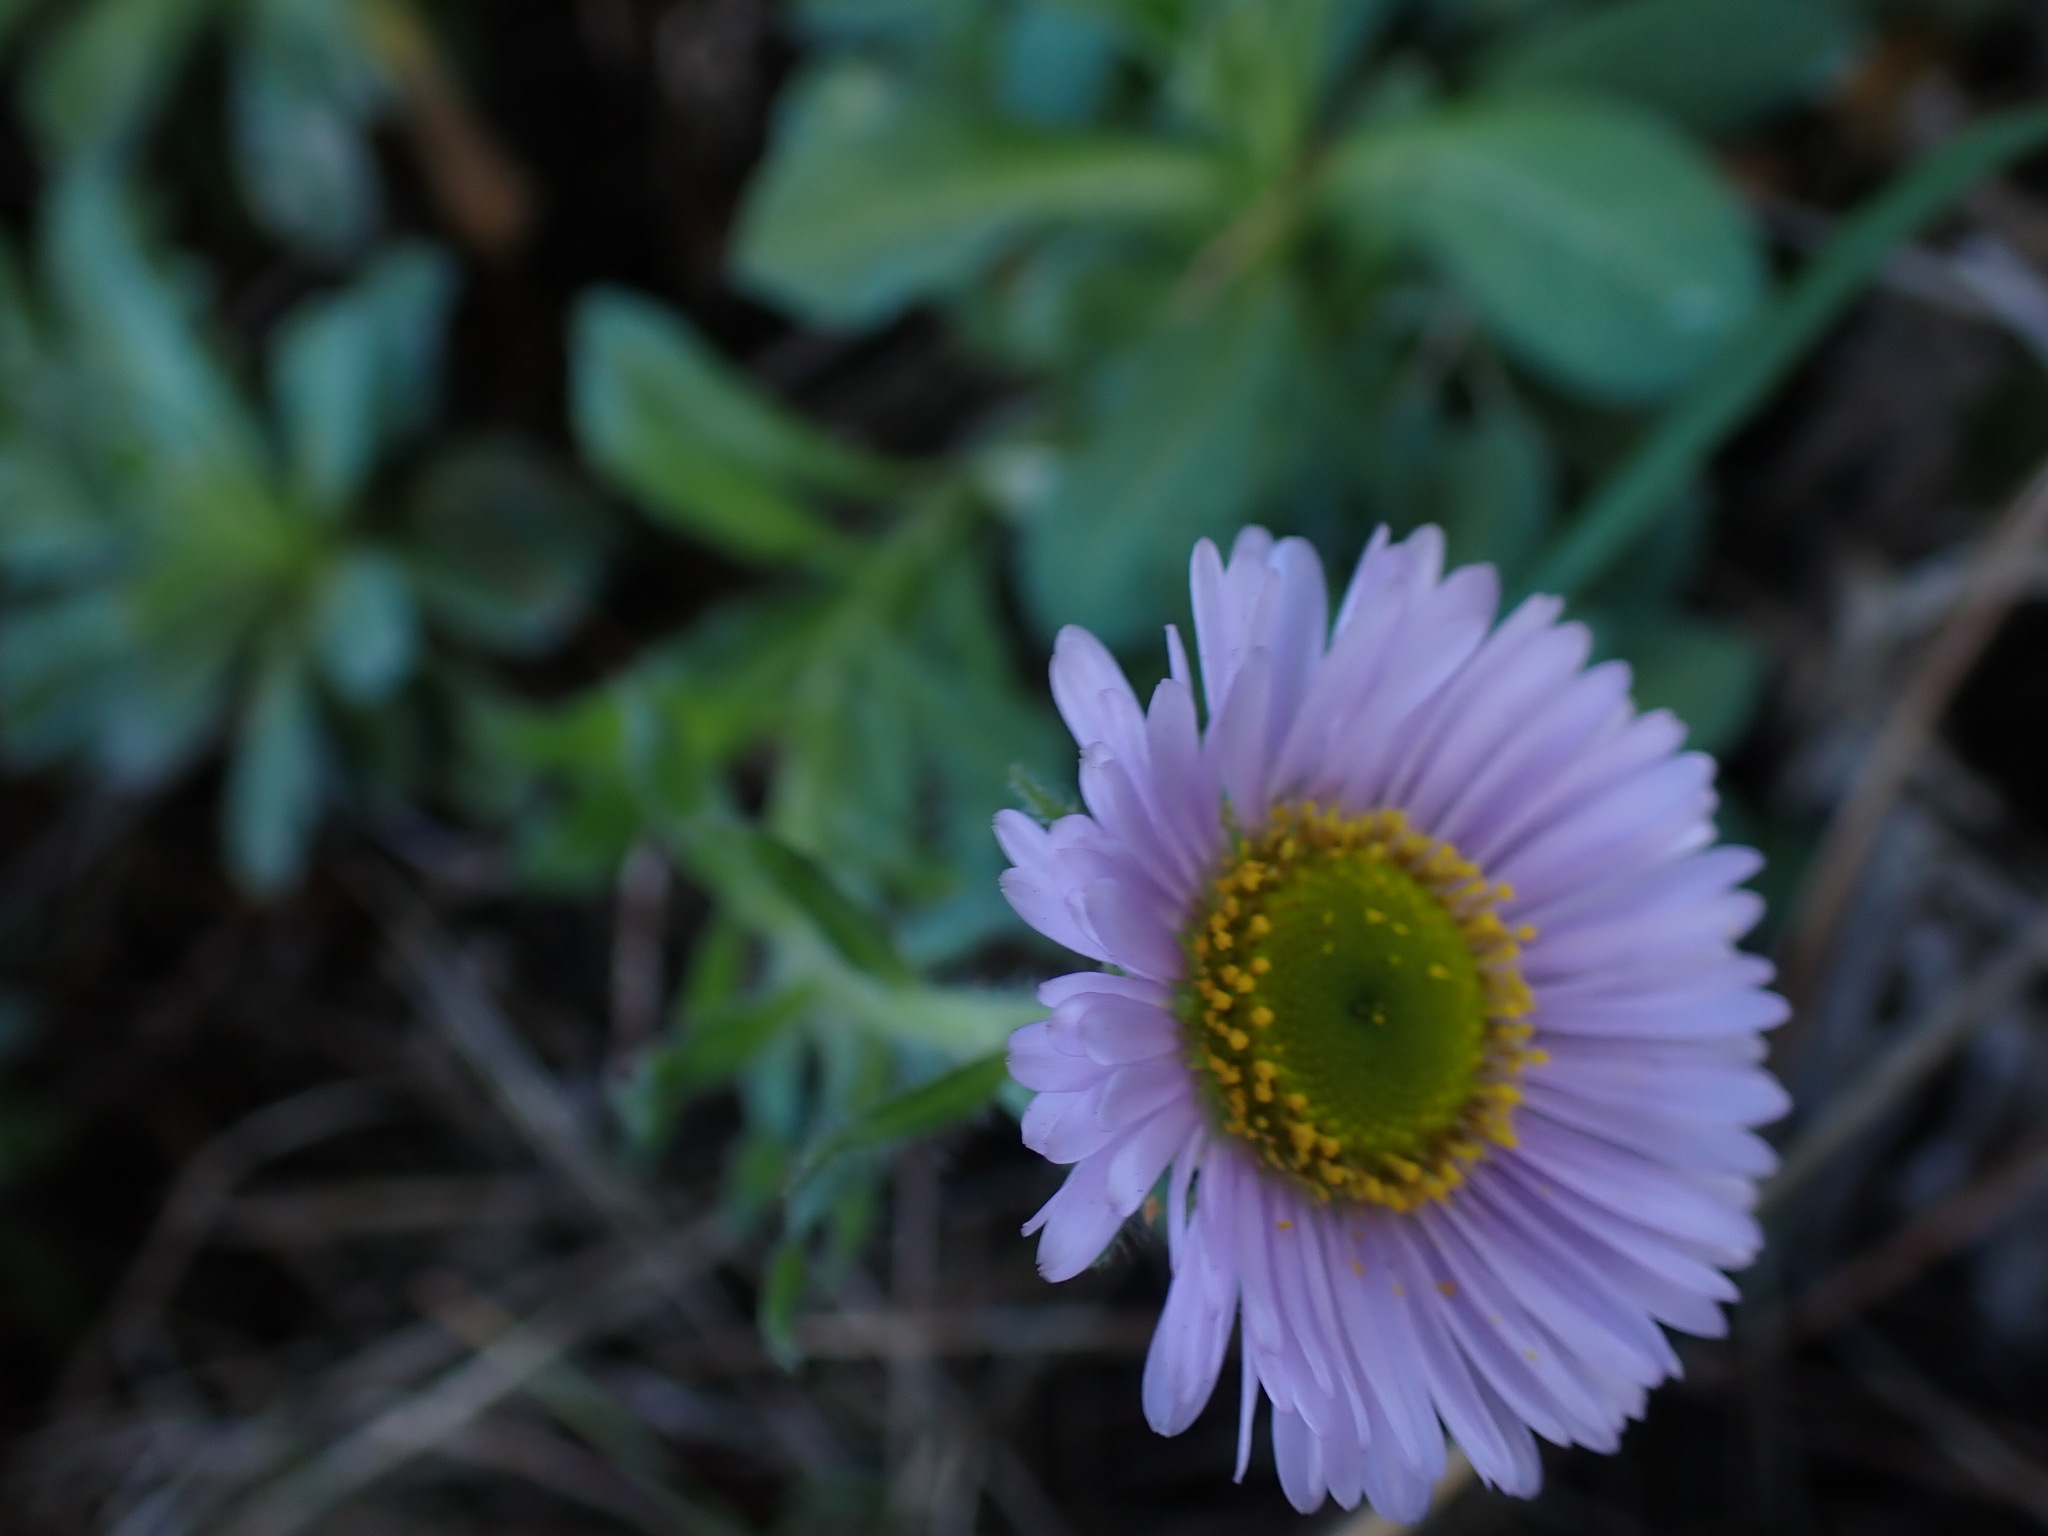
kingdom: Plantae
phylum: Tracheophyta
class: Magnoliopsida
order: Asterales
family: Asteraceae
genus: Erigeron
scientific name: Erigeron glaucus
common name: Seaside daisy
